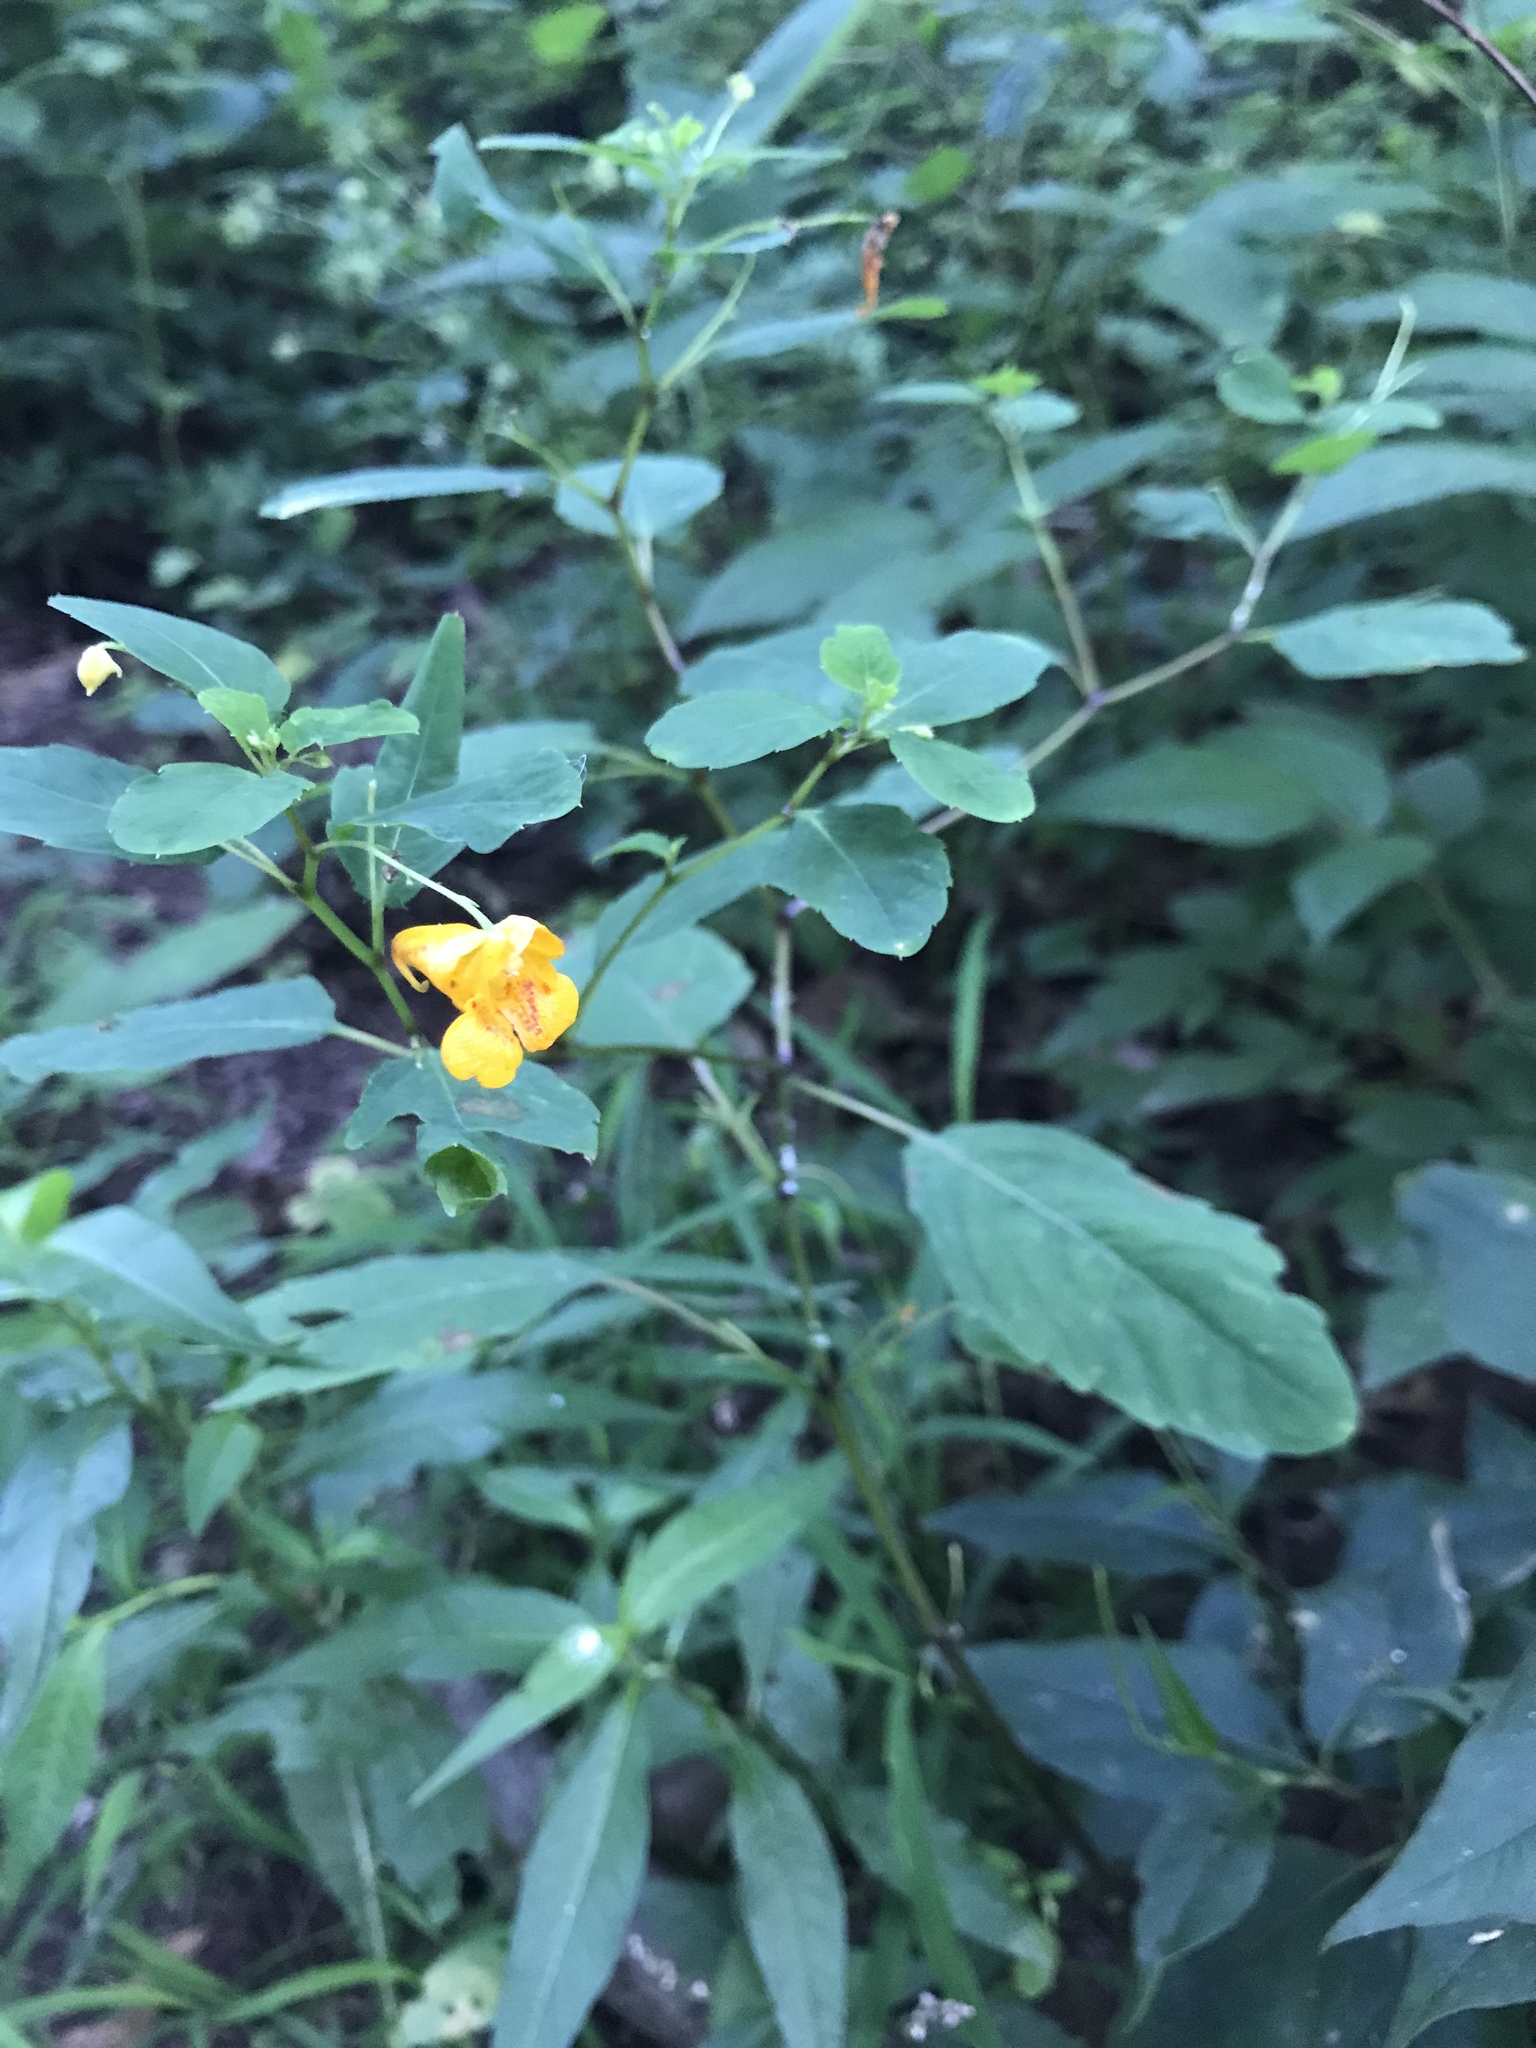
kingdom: Plantae
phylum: Tracheophyta
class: Magnoliopsida
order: Ericales
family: Balsaminaceae
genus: Impatiens
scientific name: Impatiens capensis
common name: Orange balsam
